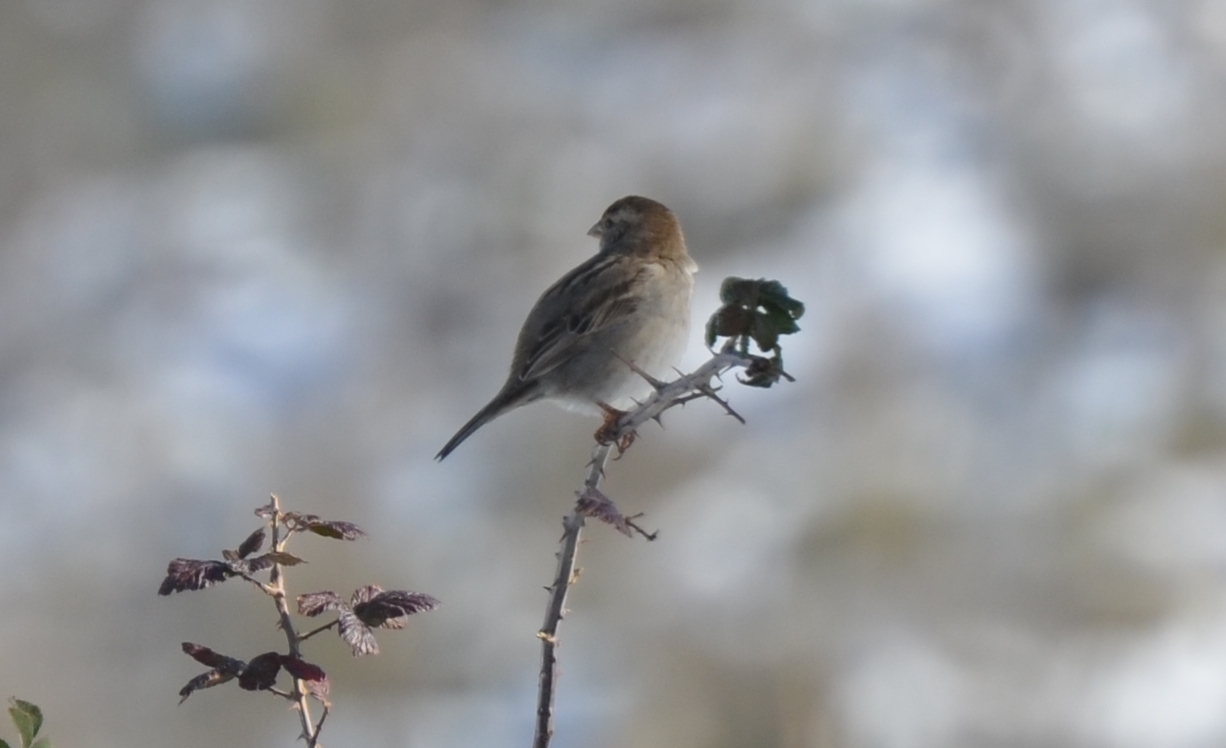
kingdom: Animalia
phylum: Chordata
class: Aves
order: Passeriformes
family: Passeridae
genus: Passer
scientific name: Passer domesticus
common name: House sparrow
